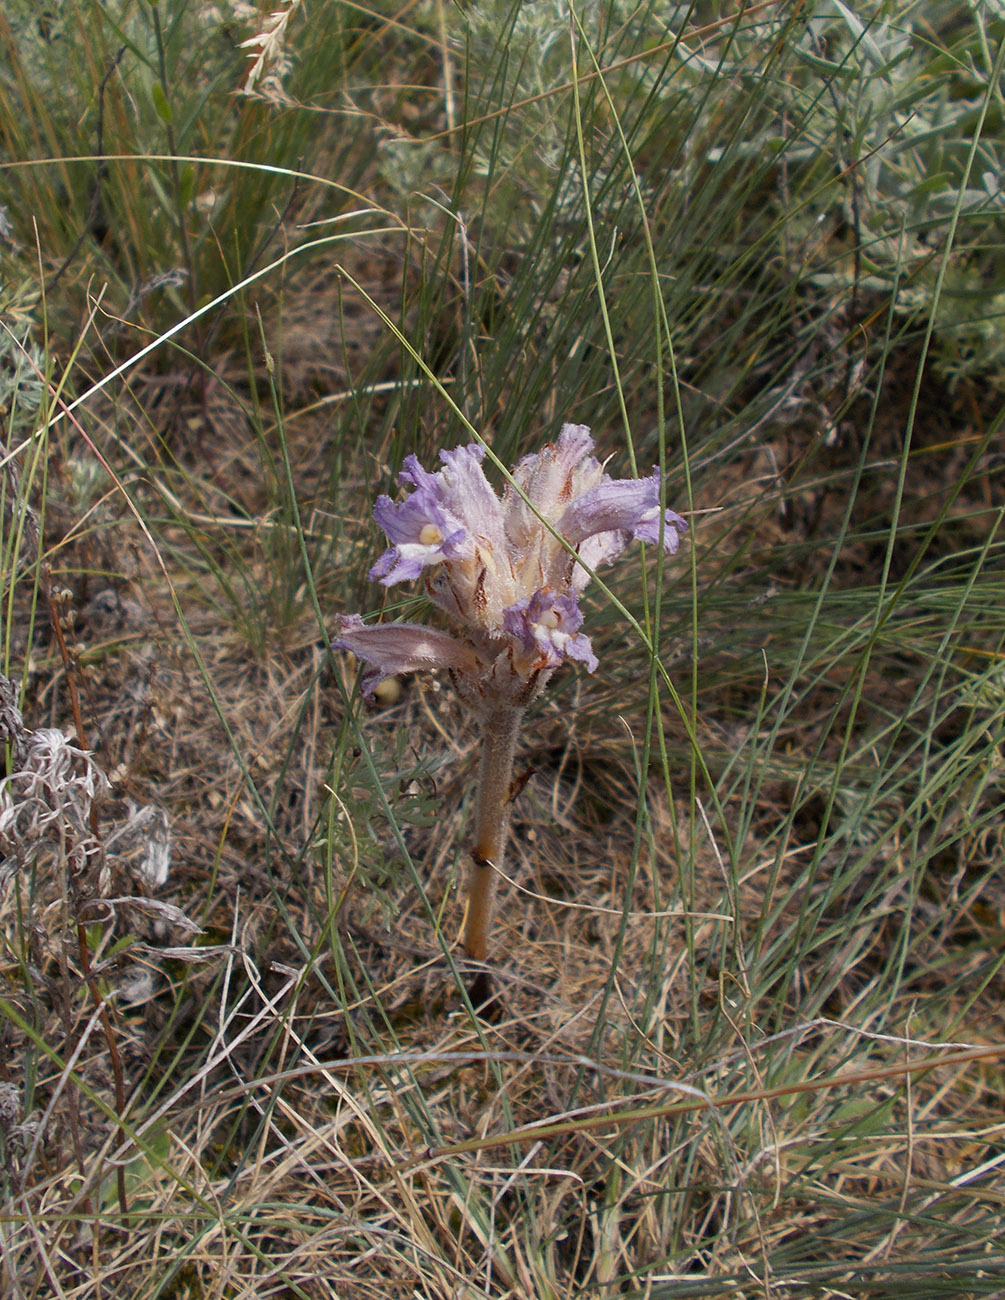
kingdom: Plantae
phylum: Tracheophyta
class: Magnoliopsida
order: Lamiales
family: Orobanchaceae
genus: Phelipanche
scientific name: Phelipanche caesia
